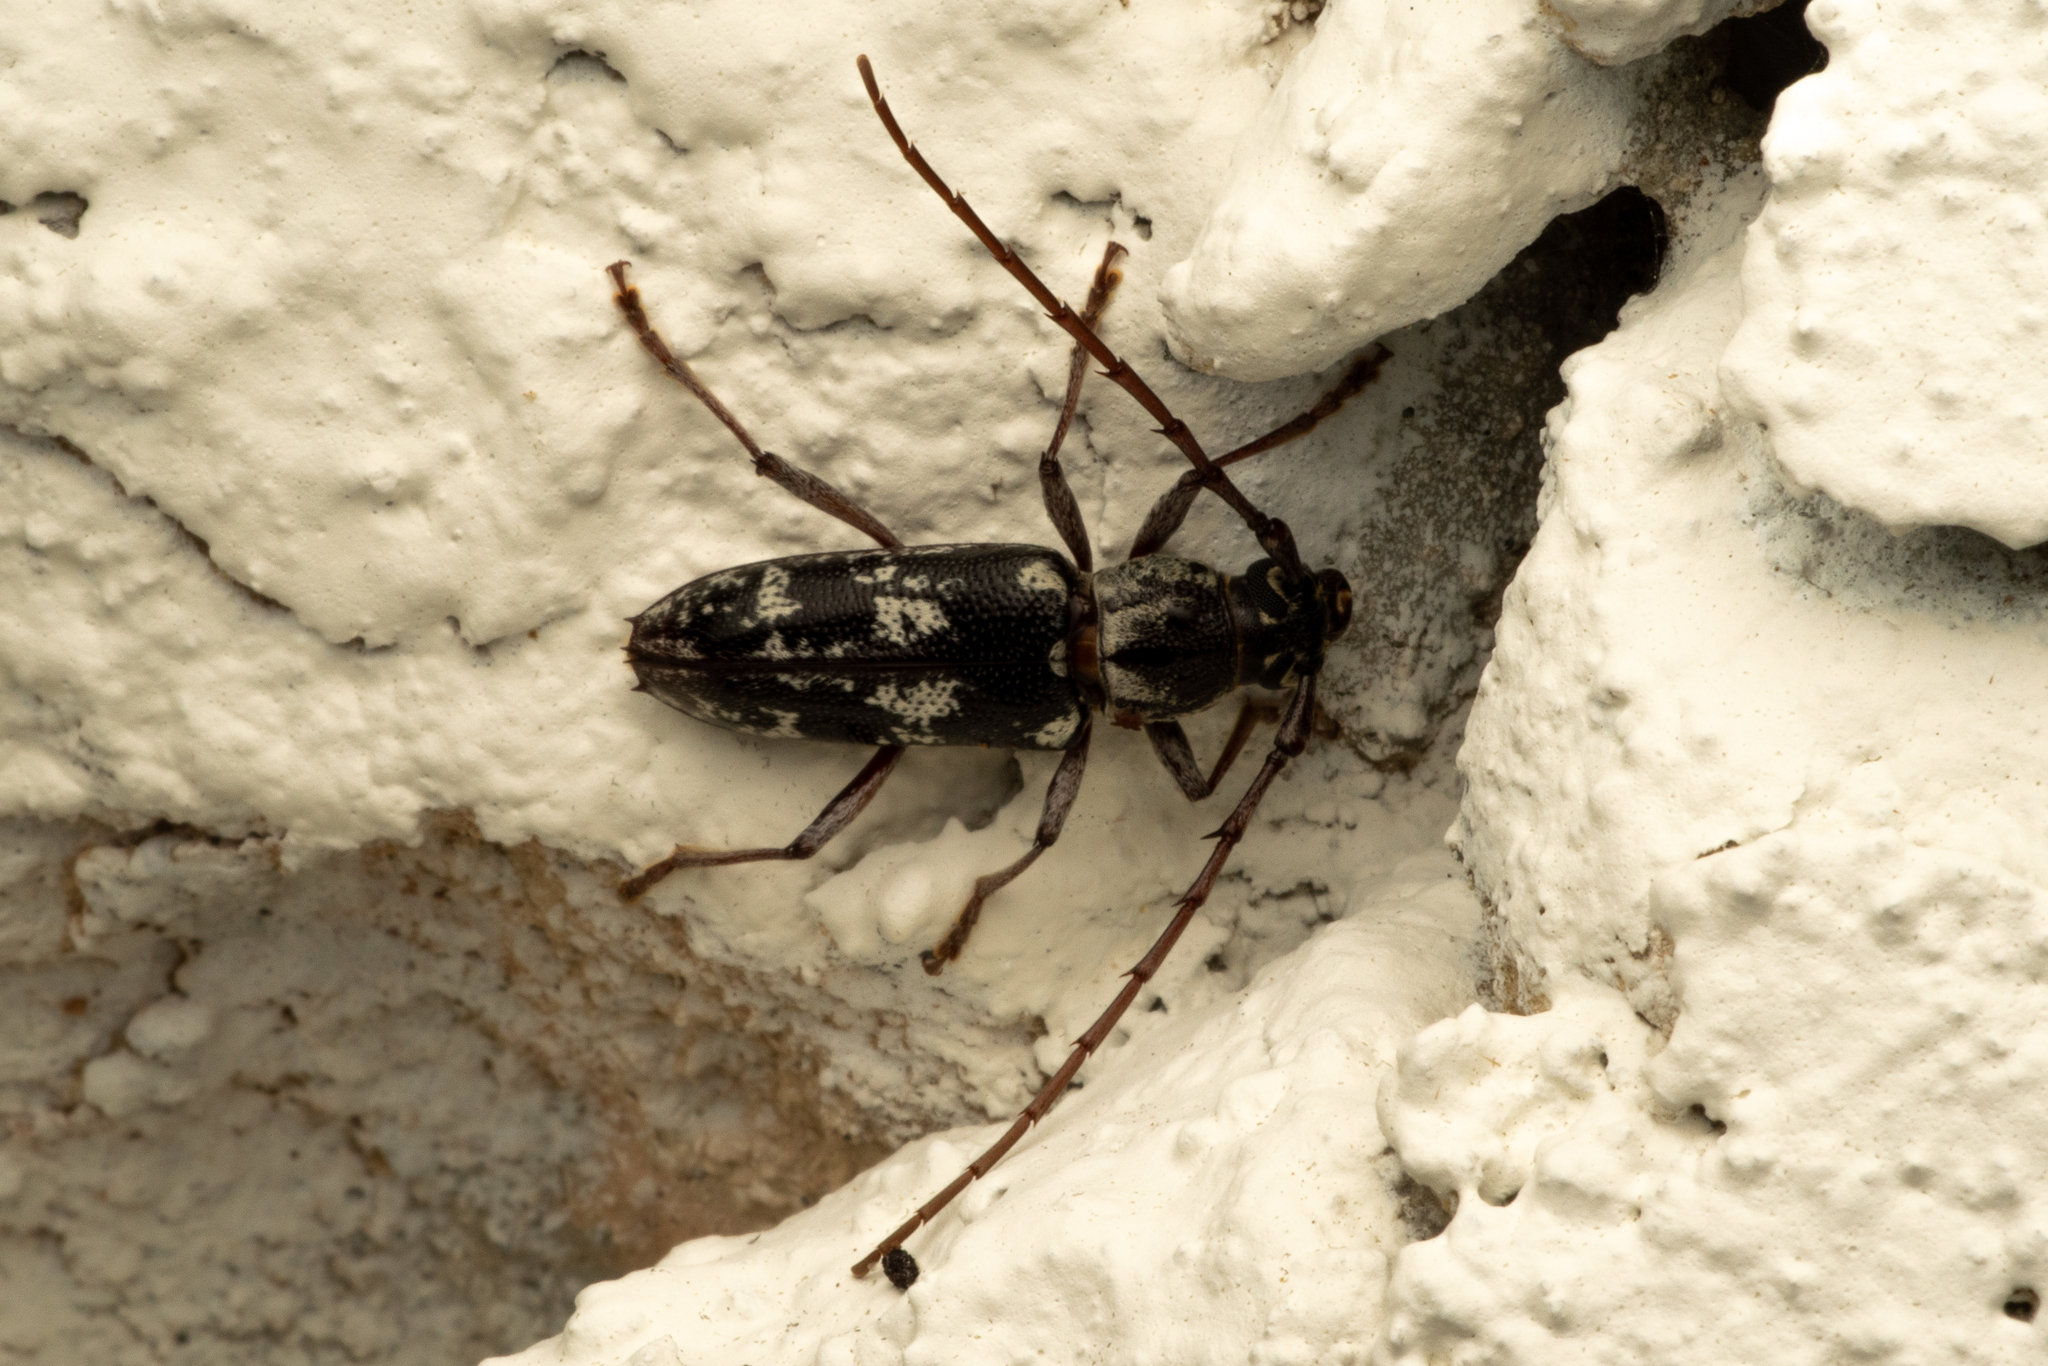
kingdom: Animalia
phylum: Arthropoda
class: Insecta
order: Coleoptera
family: Cerambycidae
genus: Elaphidion
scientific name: Elaphidion irroratum
